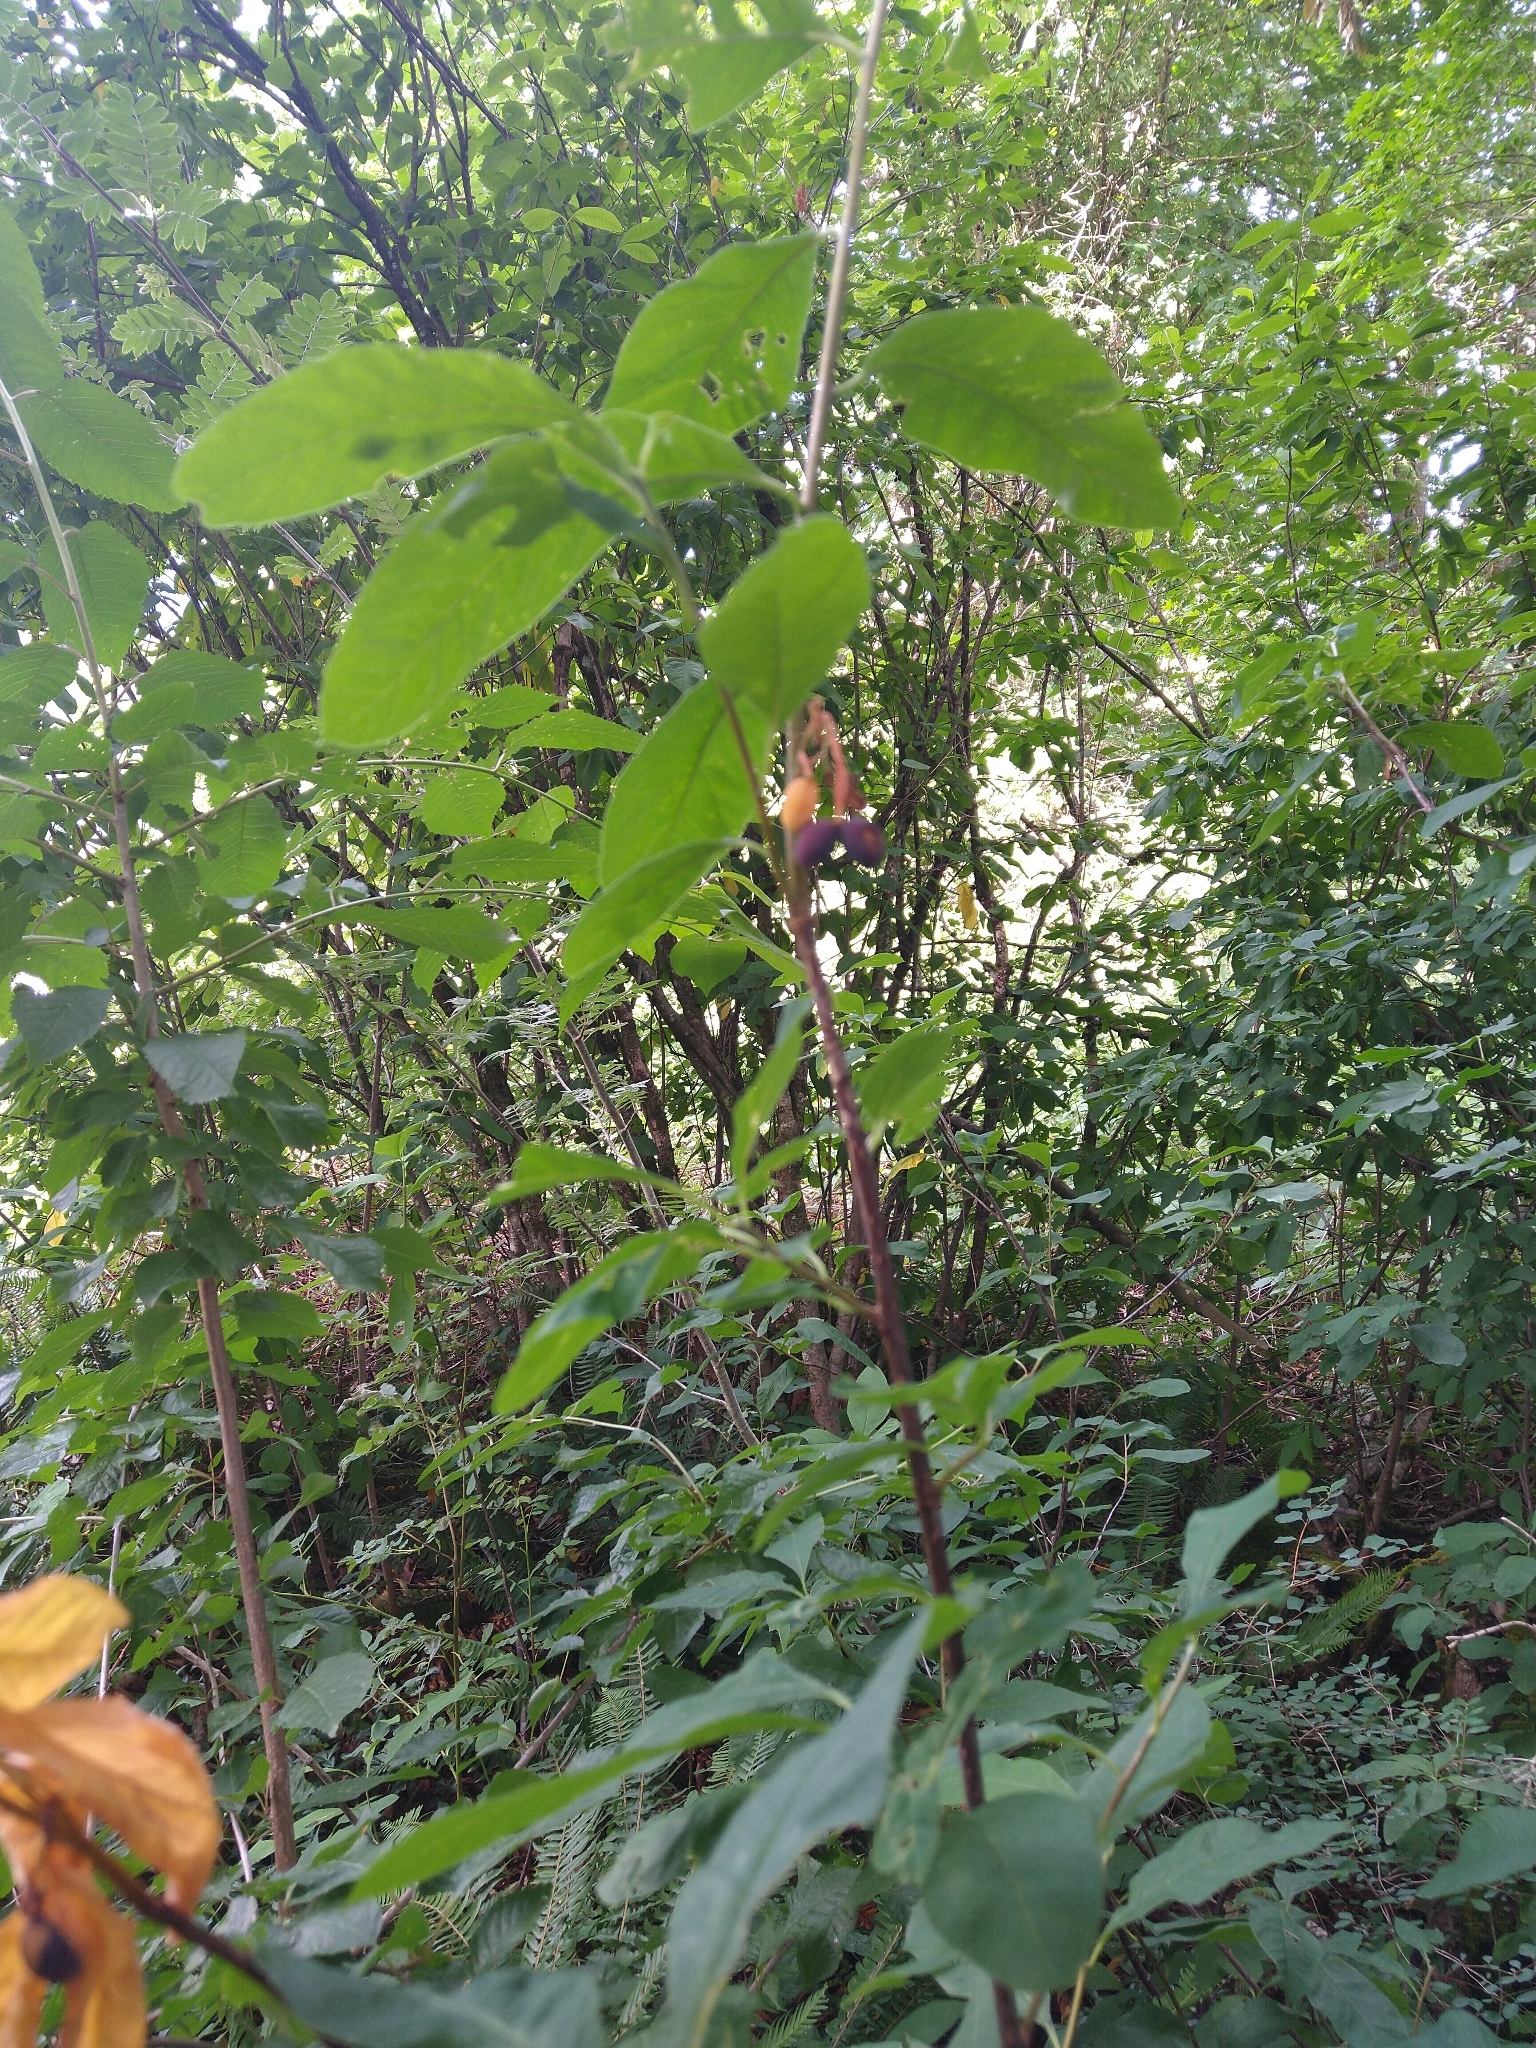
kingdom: Plantae
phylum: Tracheophyta
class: Magnoliopsida
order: Rosales
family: Rosaceae
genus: Oemleria
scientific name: Oemleria cerasiformis
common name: Osoberry
